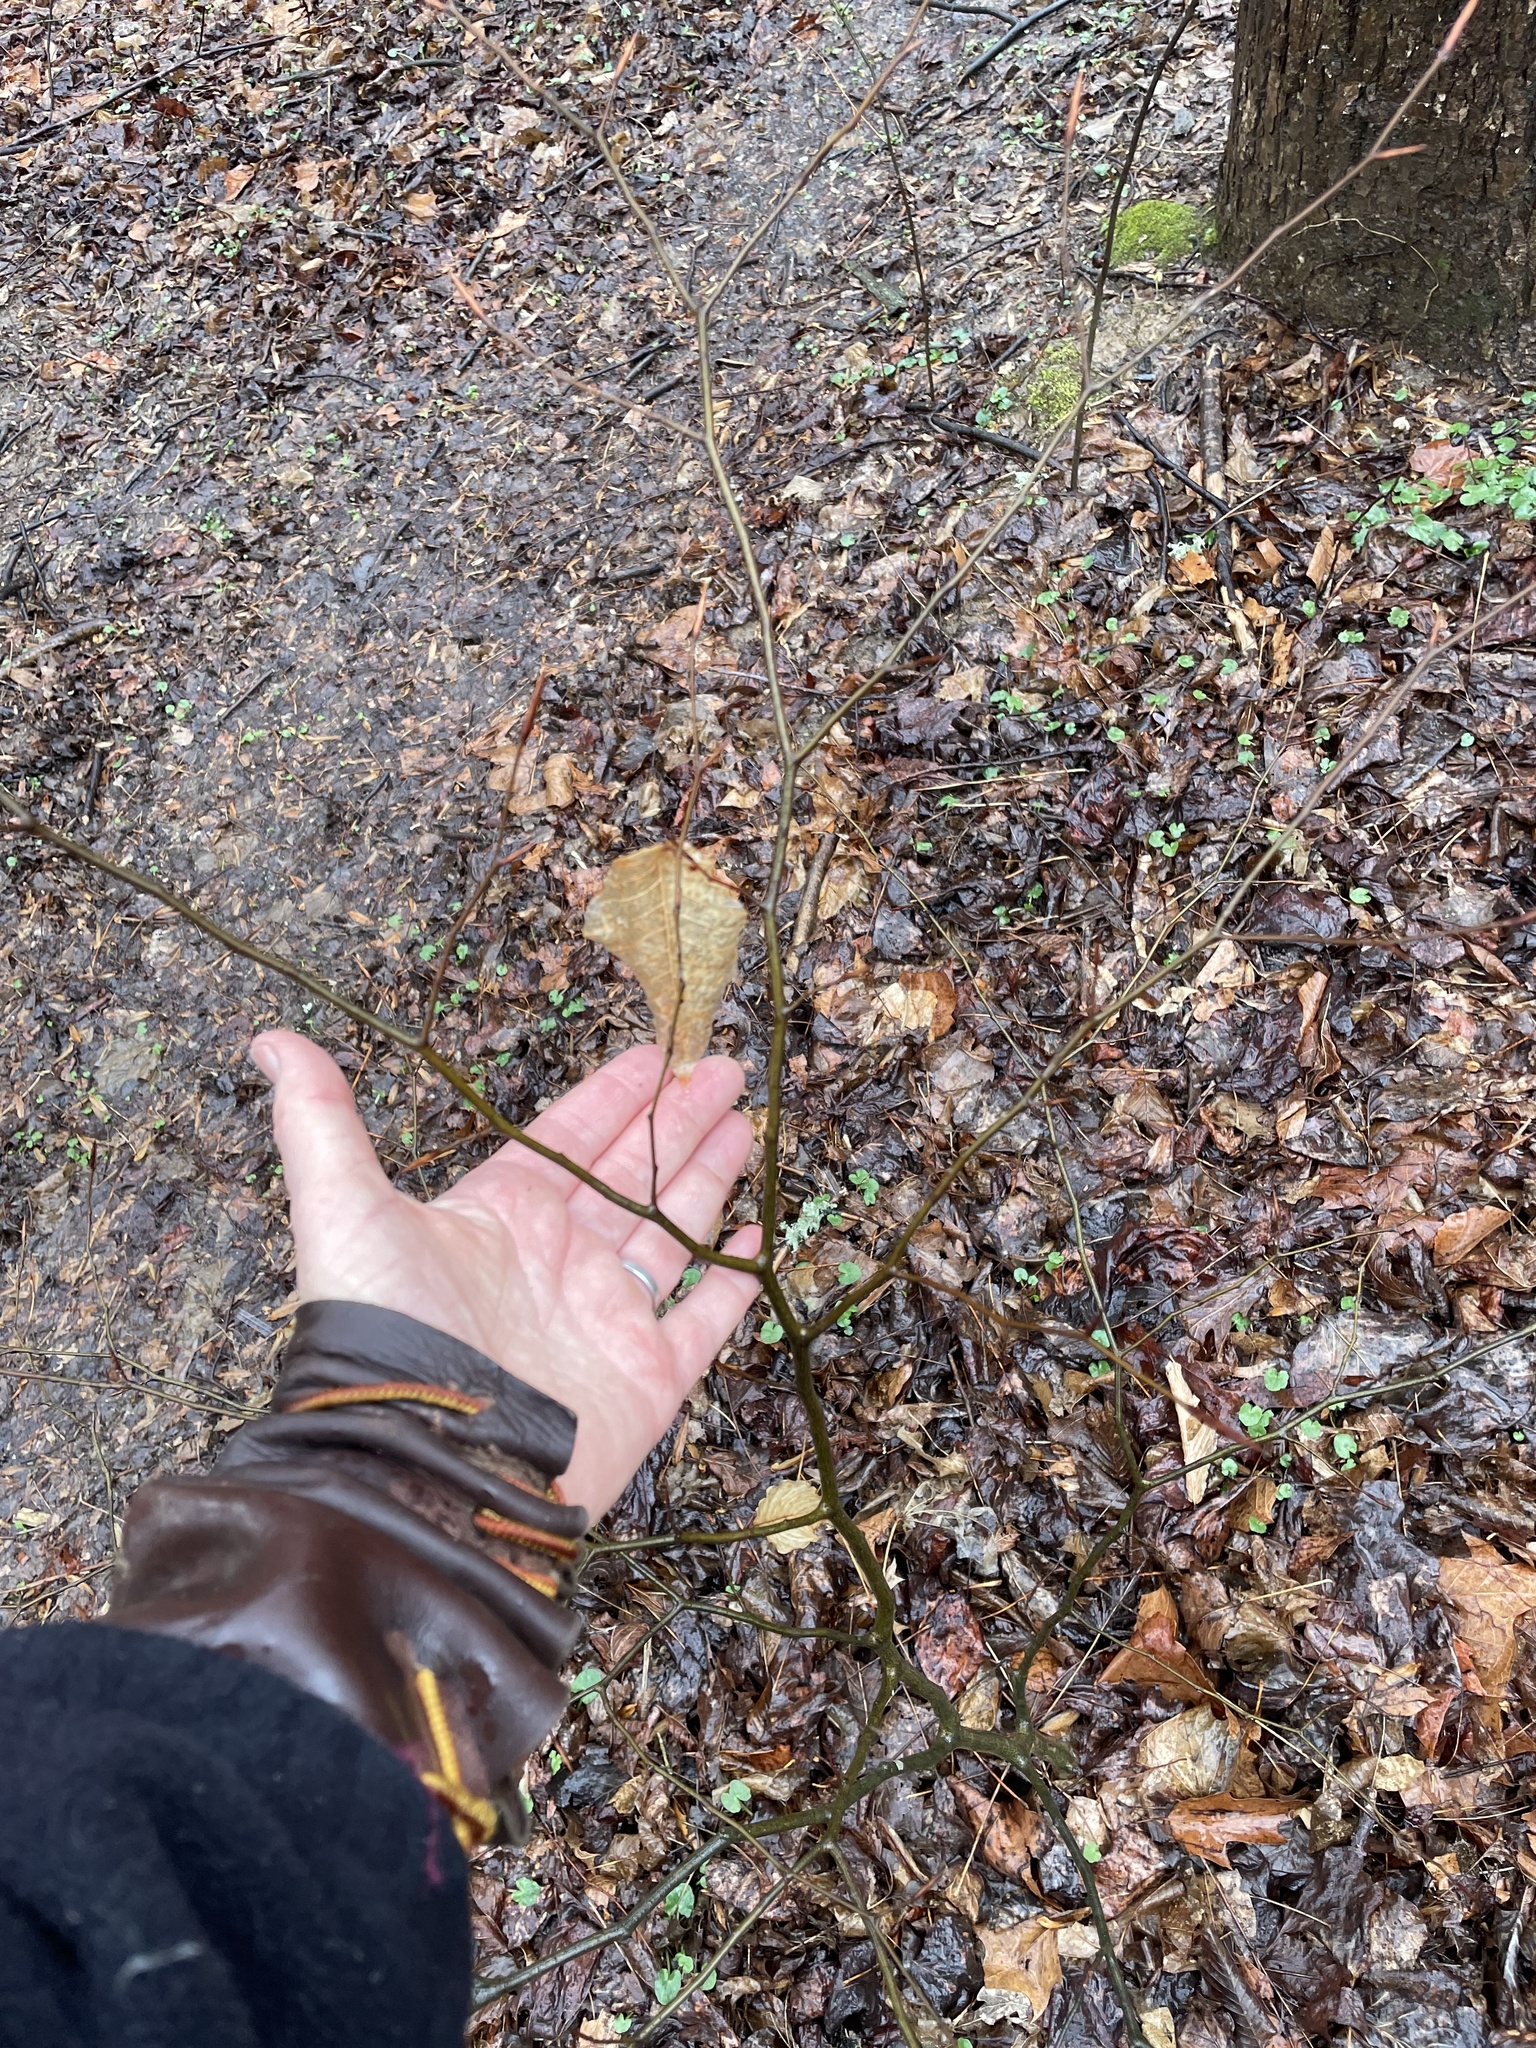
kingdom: Plantae
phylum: Tracheophyta
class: Magnoliopsida
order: Fagales
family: Fagaceae
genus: Fagus
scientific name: Fagus grandifolia
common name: American beech
